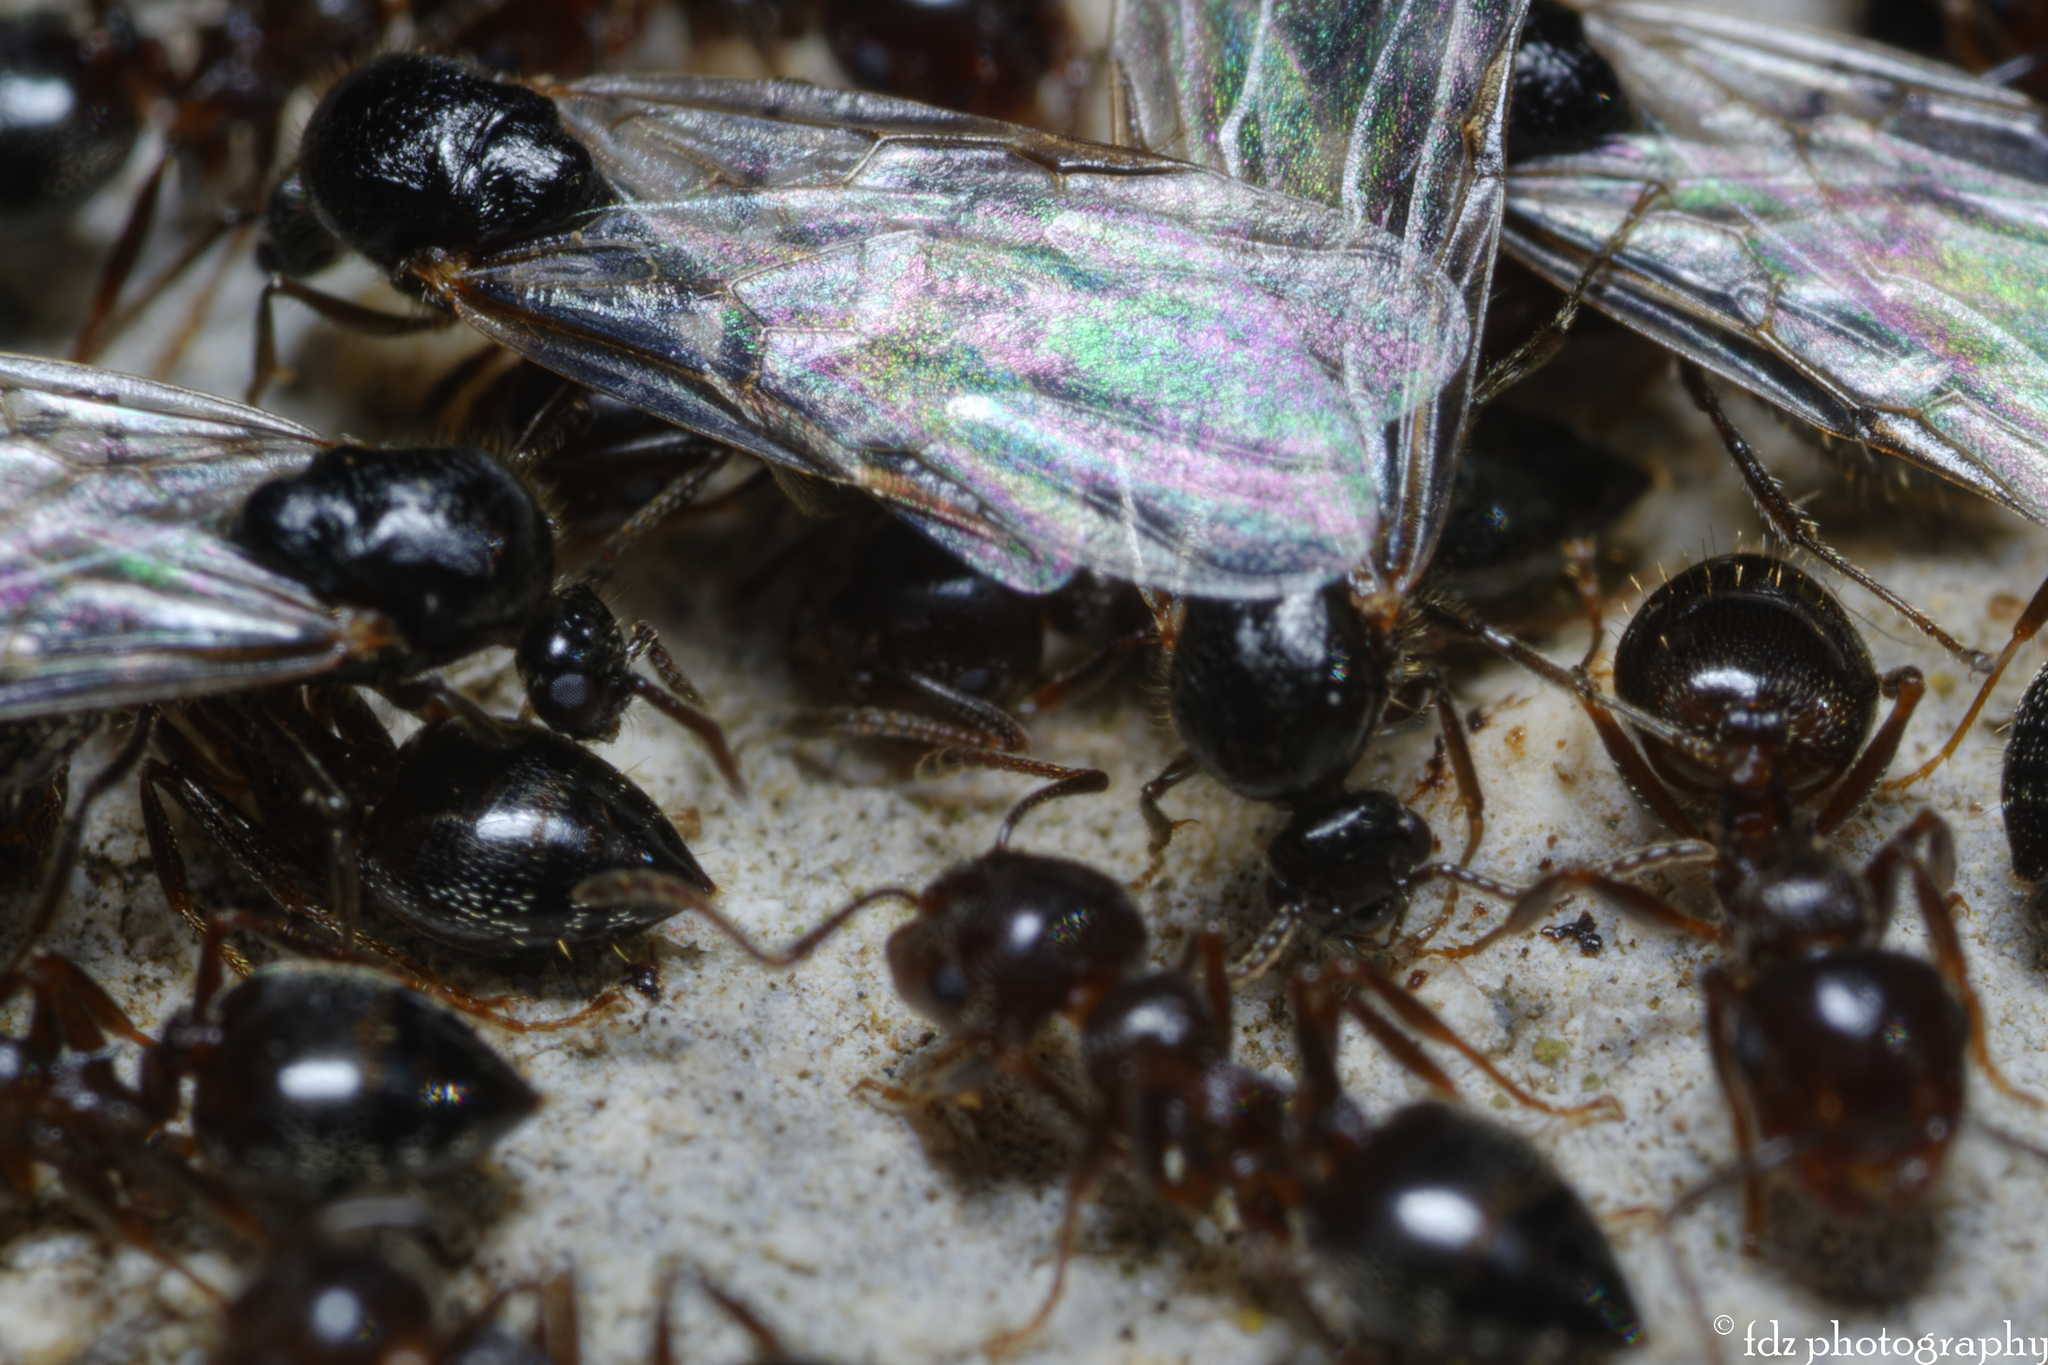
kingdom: Animalia
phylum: Arthropoda
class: Insecta
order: Hymenoptera
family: Formicidae
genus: Crematogaster
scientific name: Crematogaster auberti
